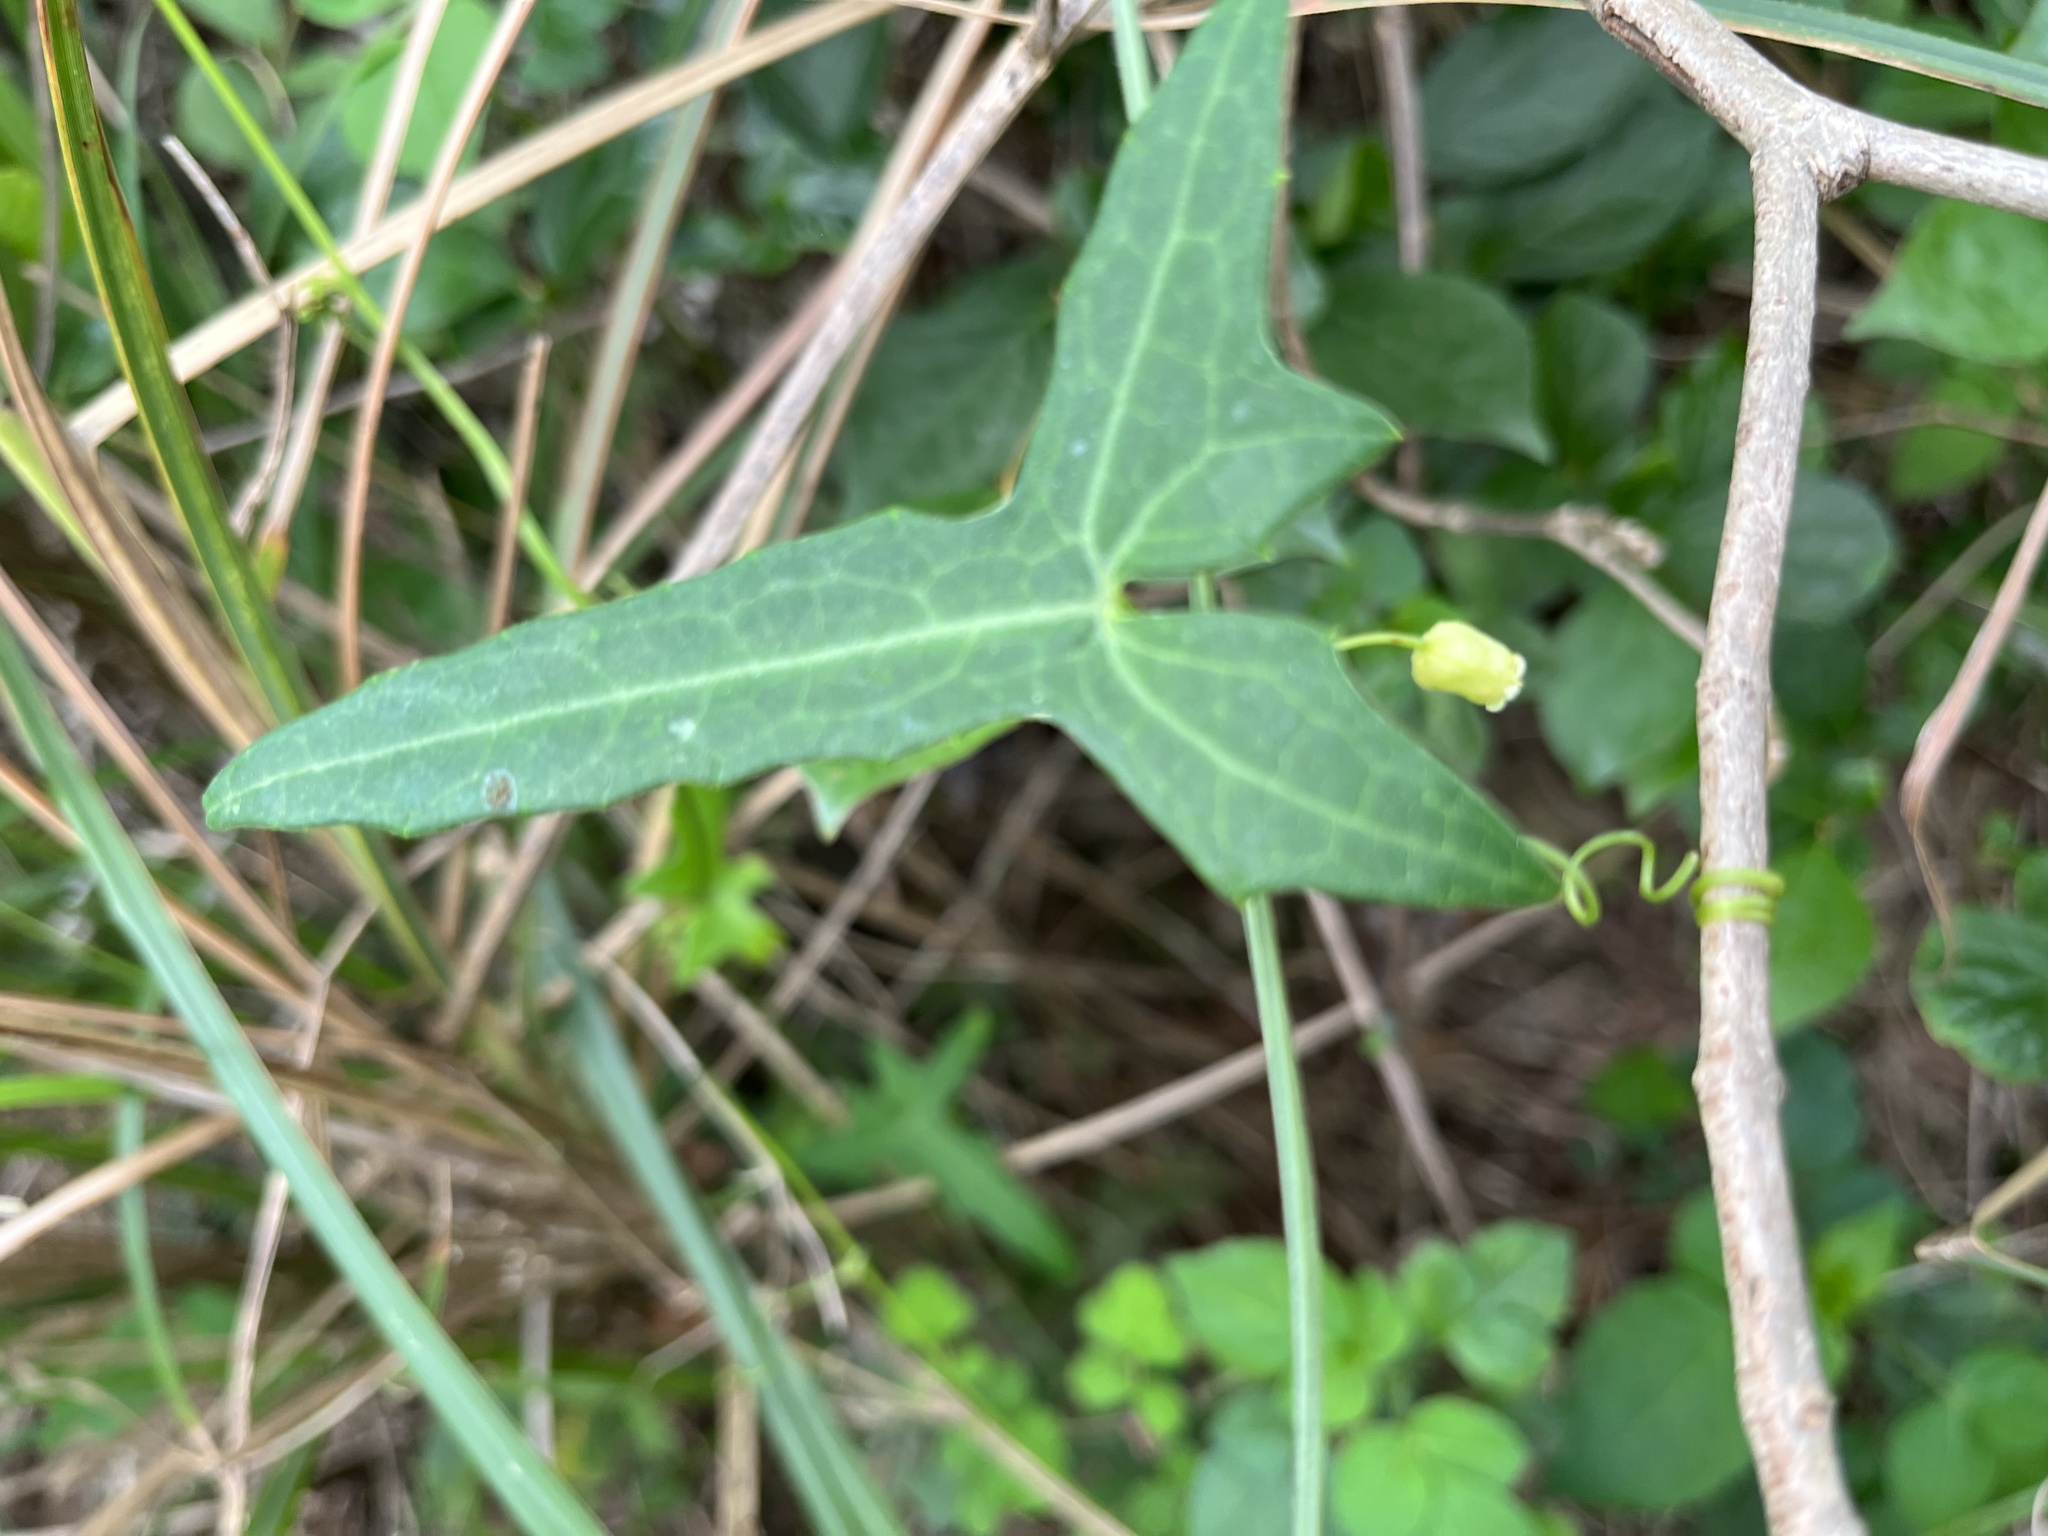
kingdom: Plantae
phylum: Tracheophyta
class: Magnoliopsida
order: Cucurbitales
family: Cucurbitaceae
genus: Solena
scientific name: Solena amplexicaulis
